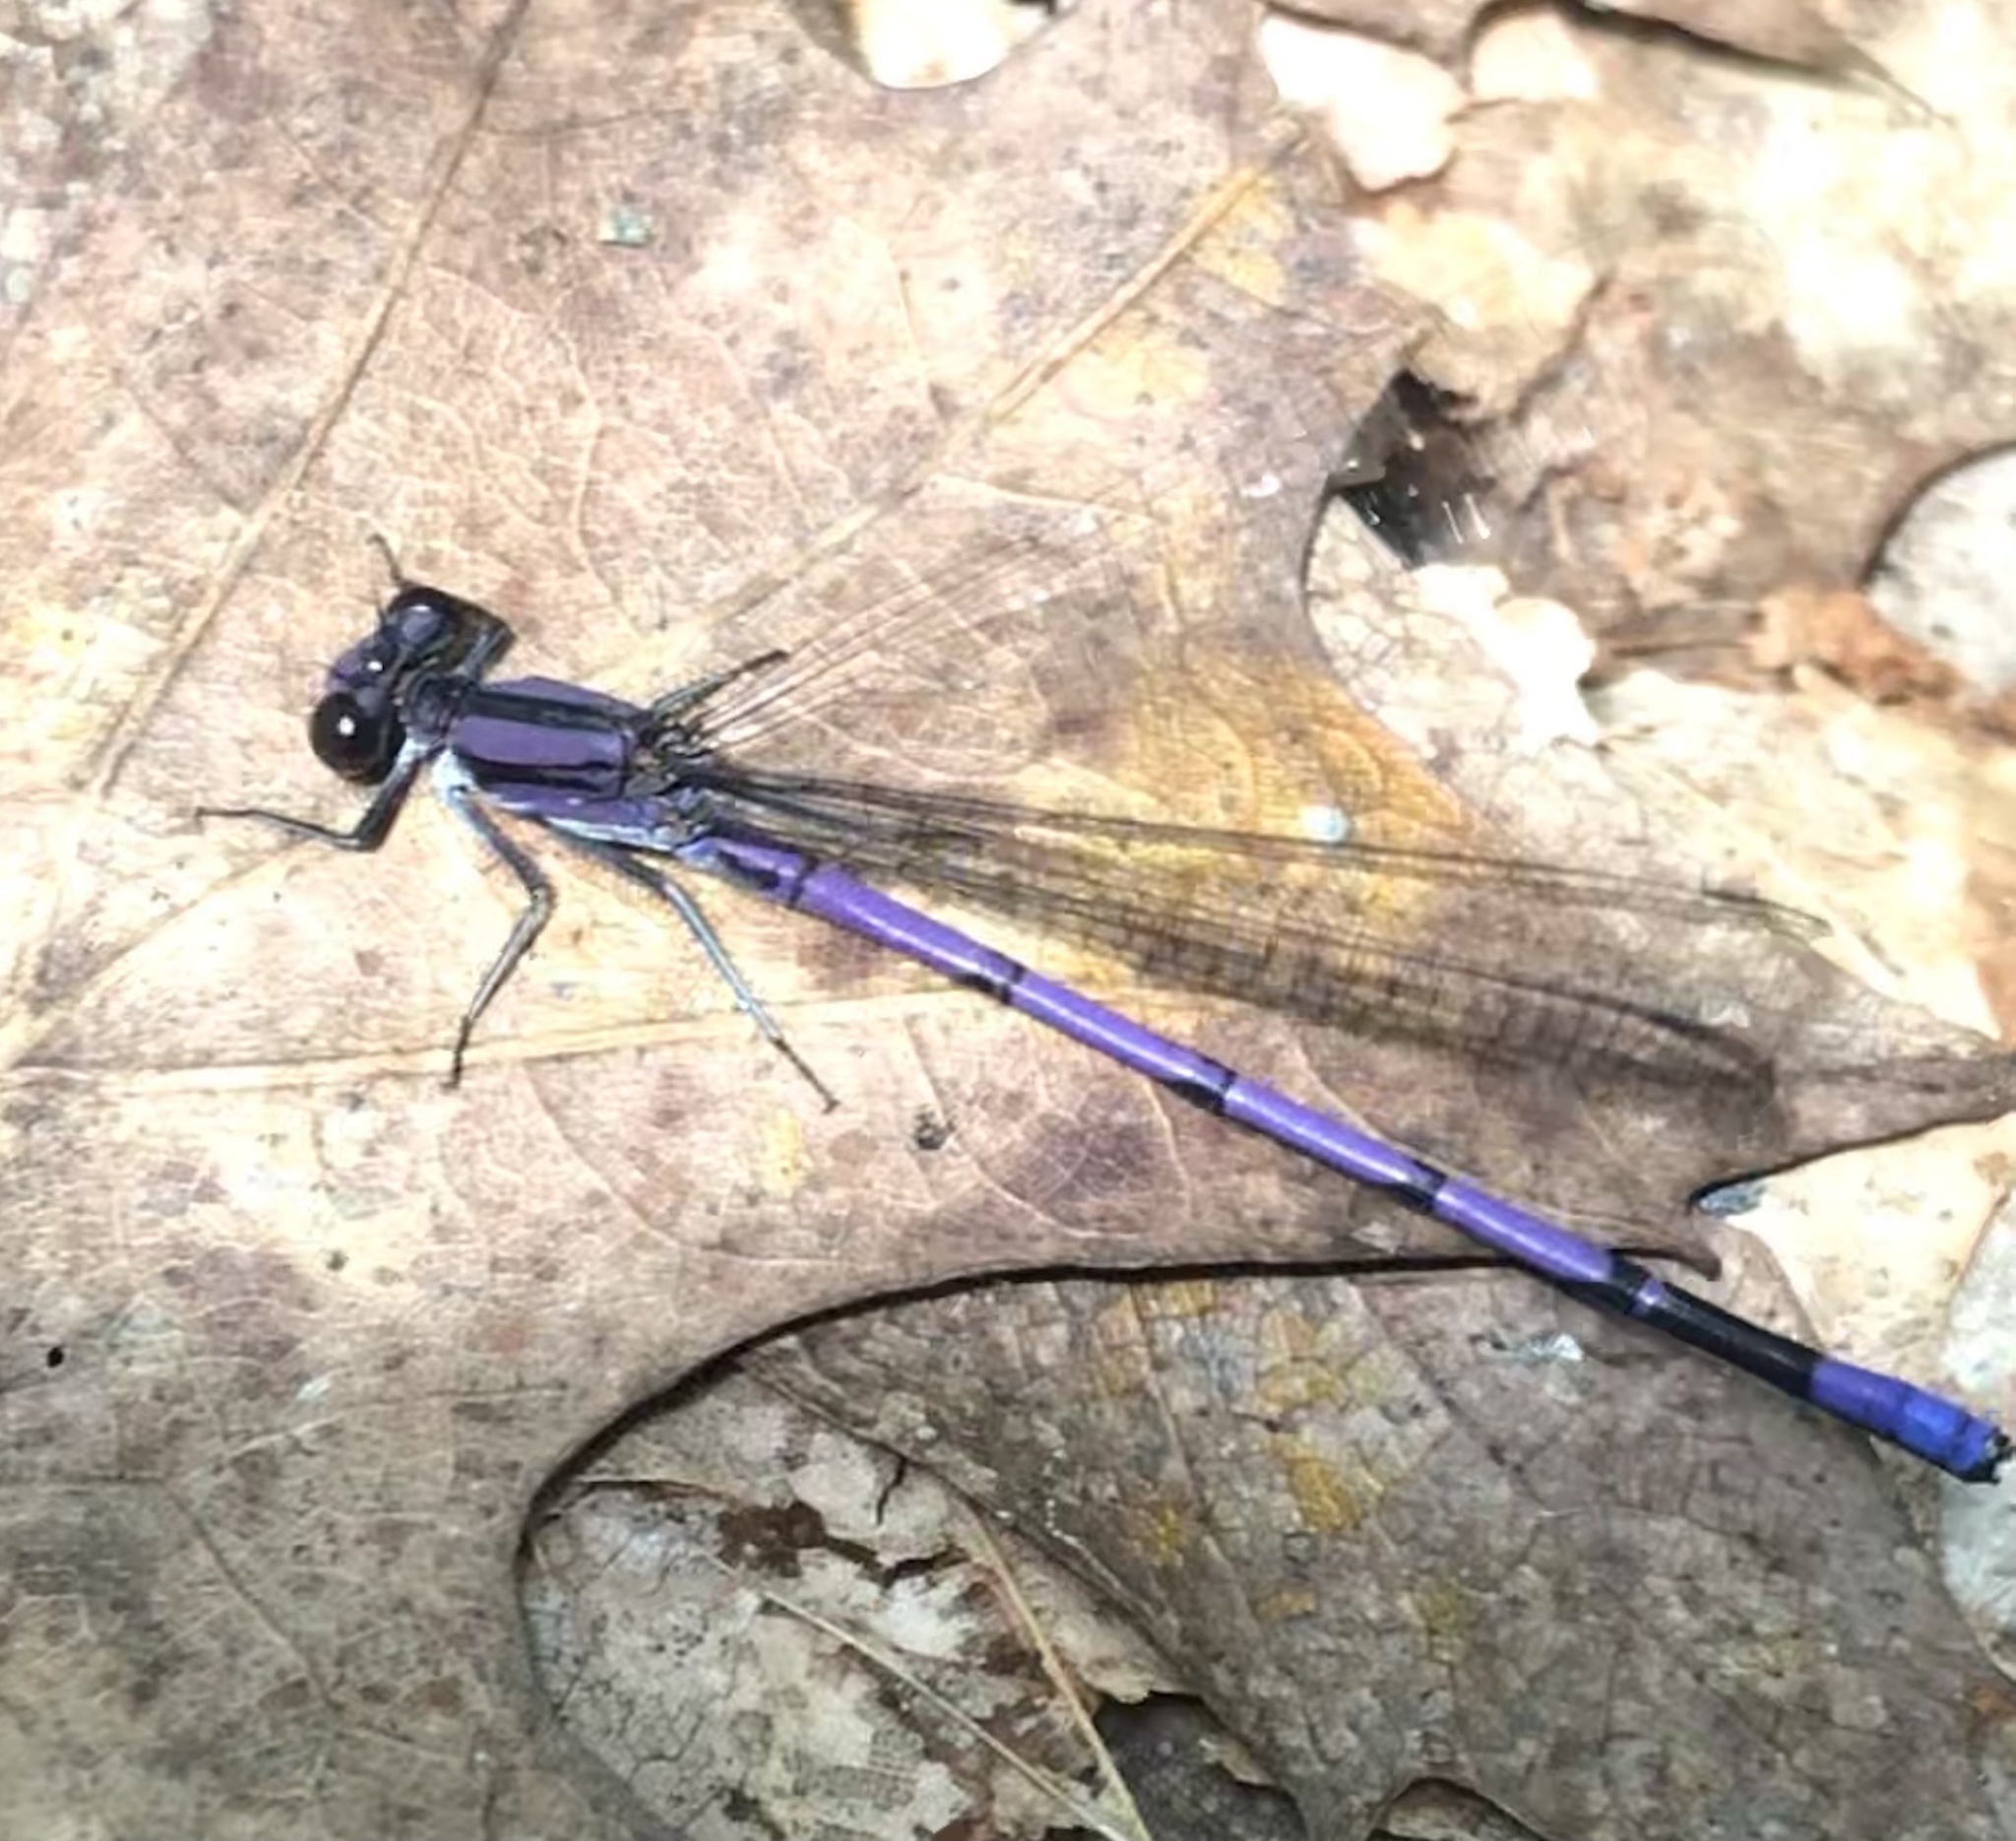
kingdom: Animalia
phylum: Arthropoda
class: Insecta
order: Odonata
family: Coenagrionidae
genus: Argia
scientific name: Argia fumipennis
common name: Variable dancer
